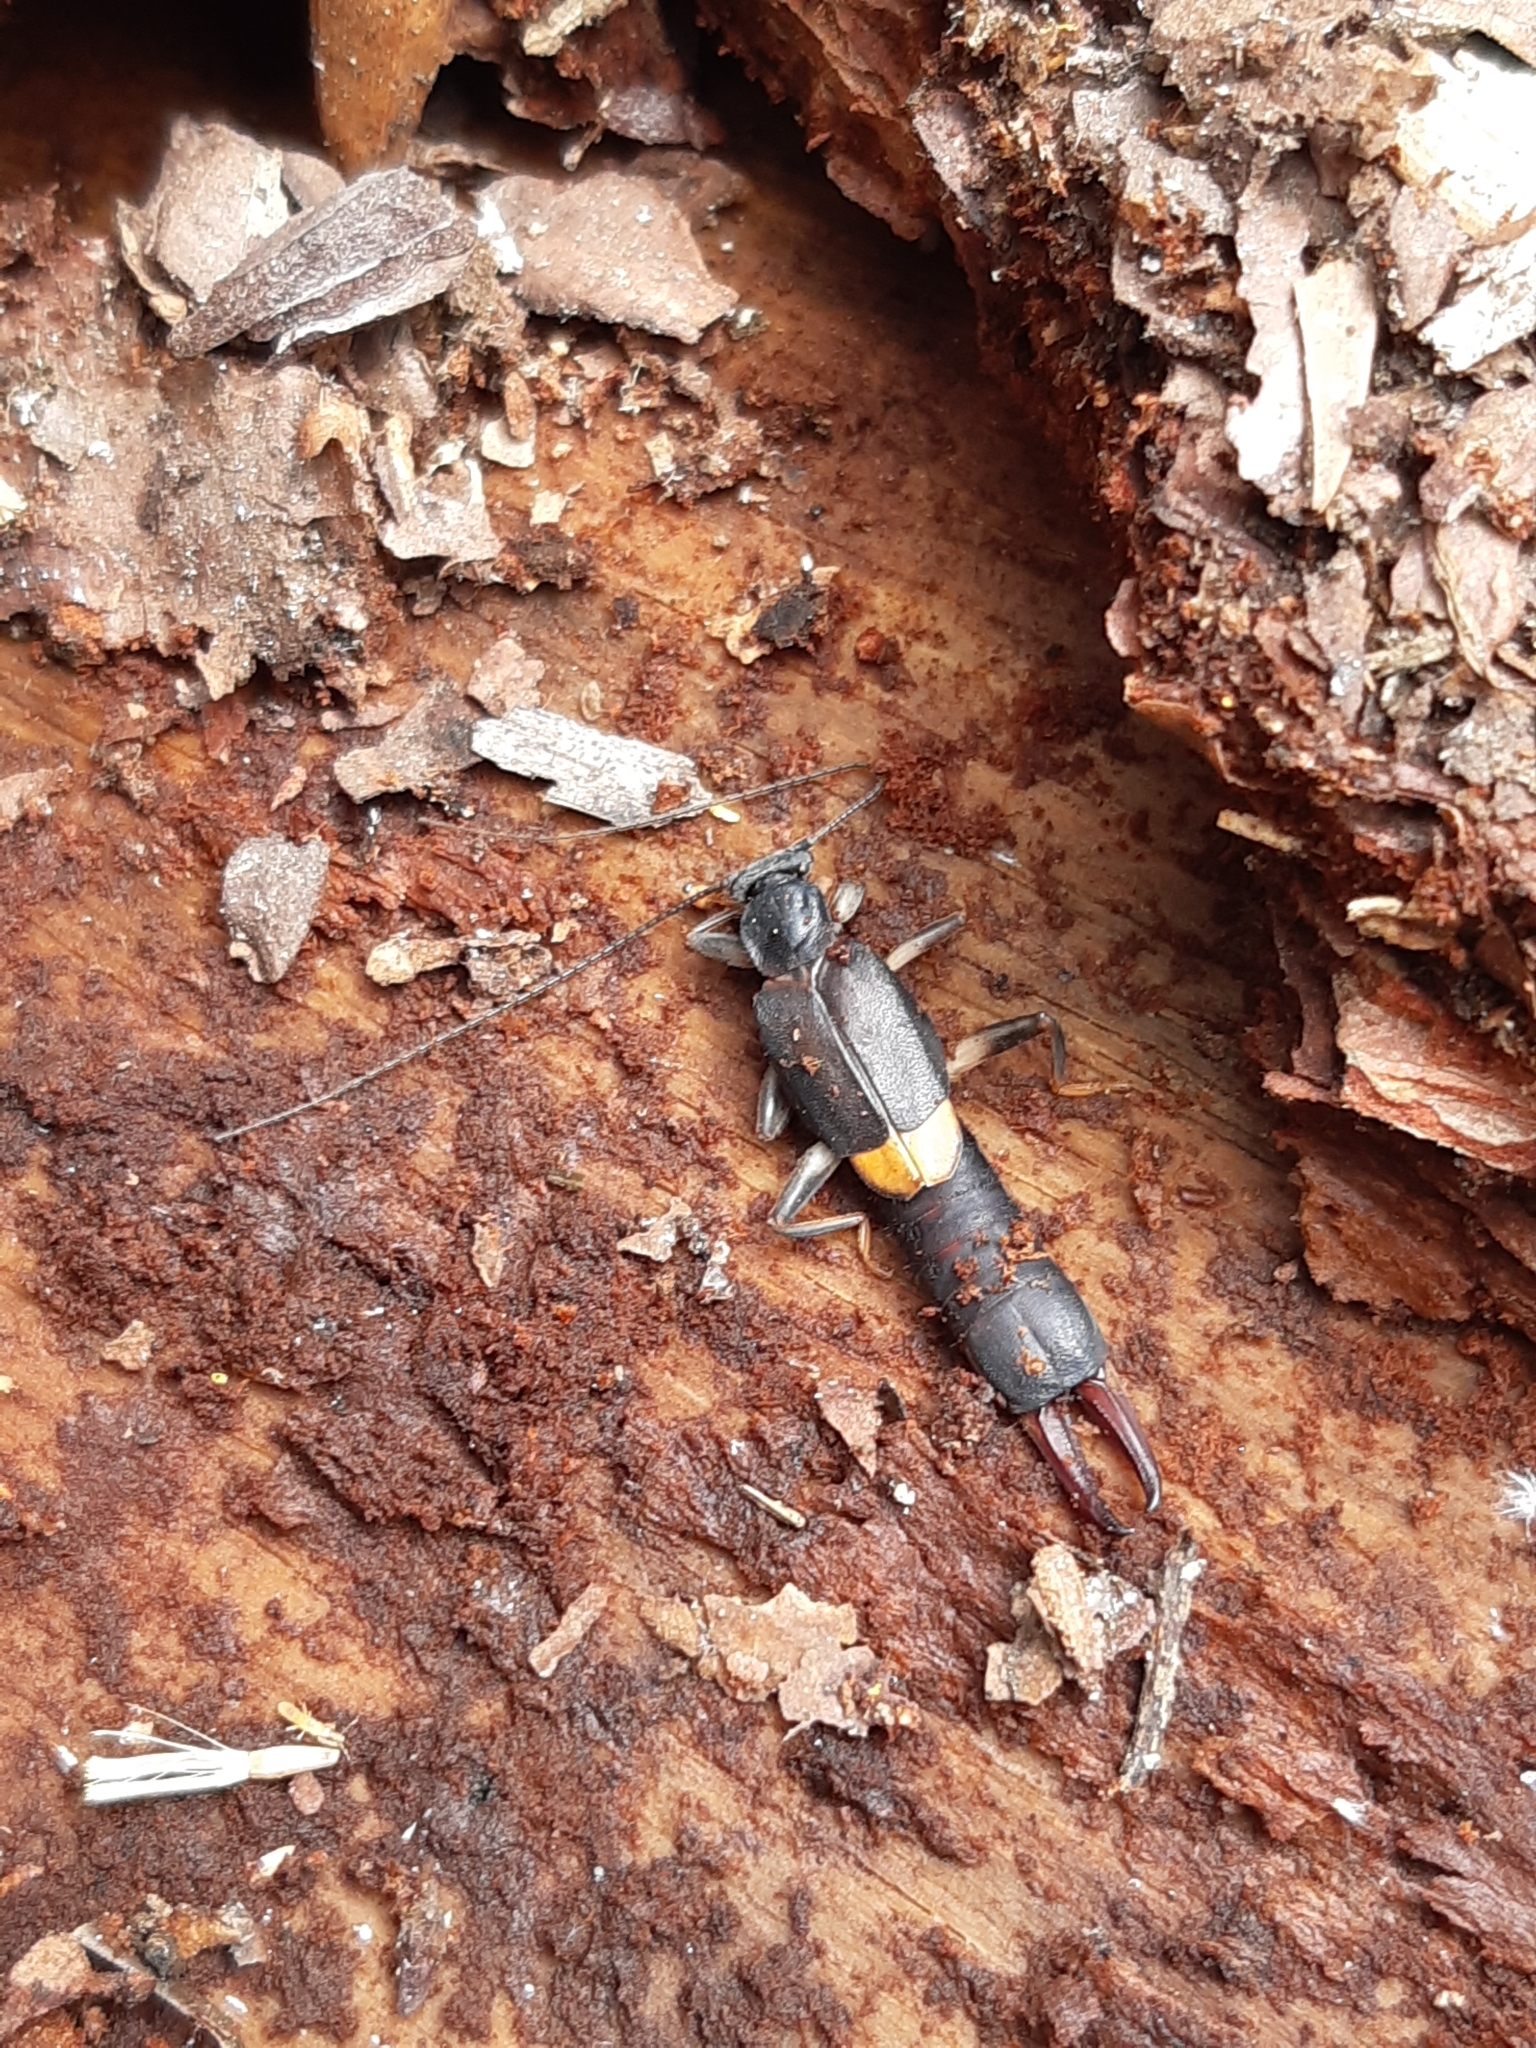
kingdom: Animalia
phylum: Arthropoda
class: Insecta
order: Dermaptera
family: Pygidicranidae
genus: Pyragra
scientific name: Pyragra paraguayensis
